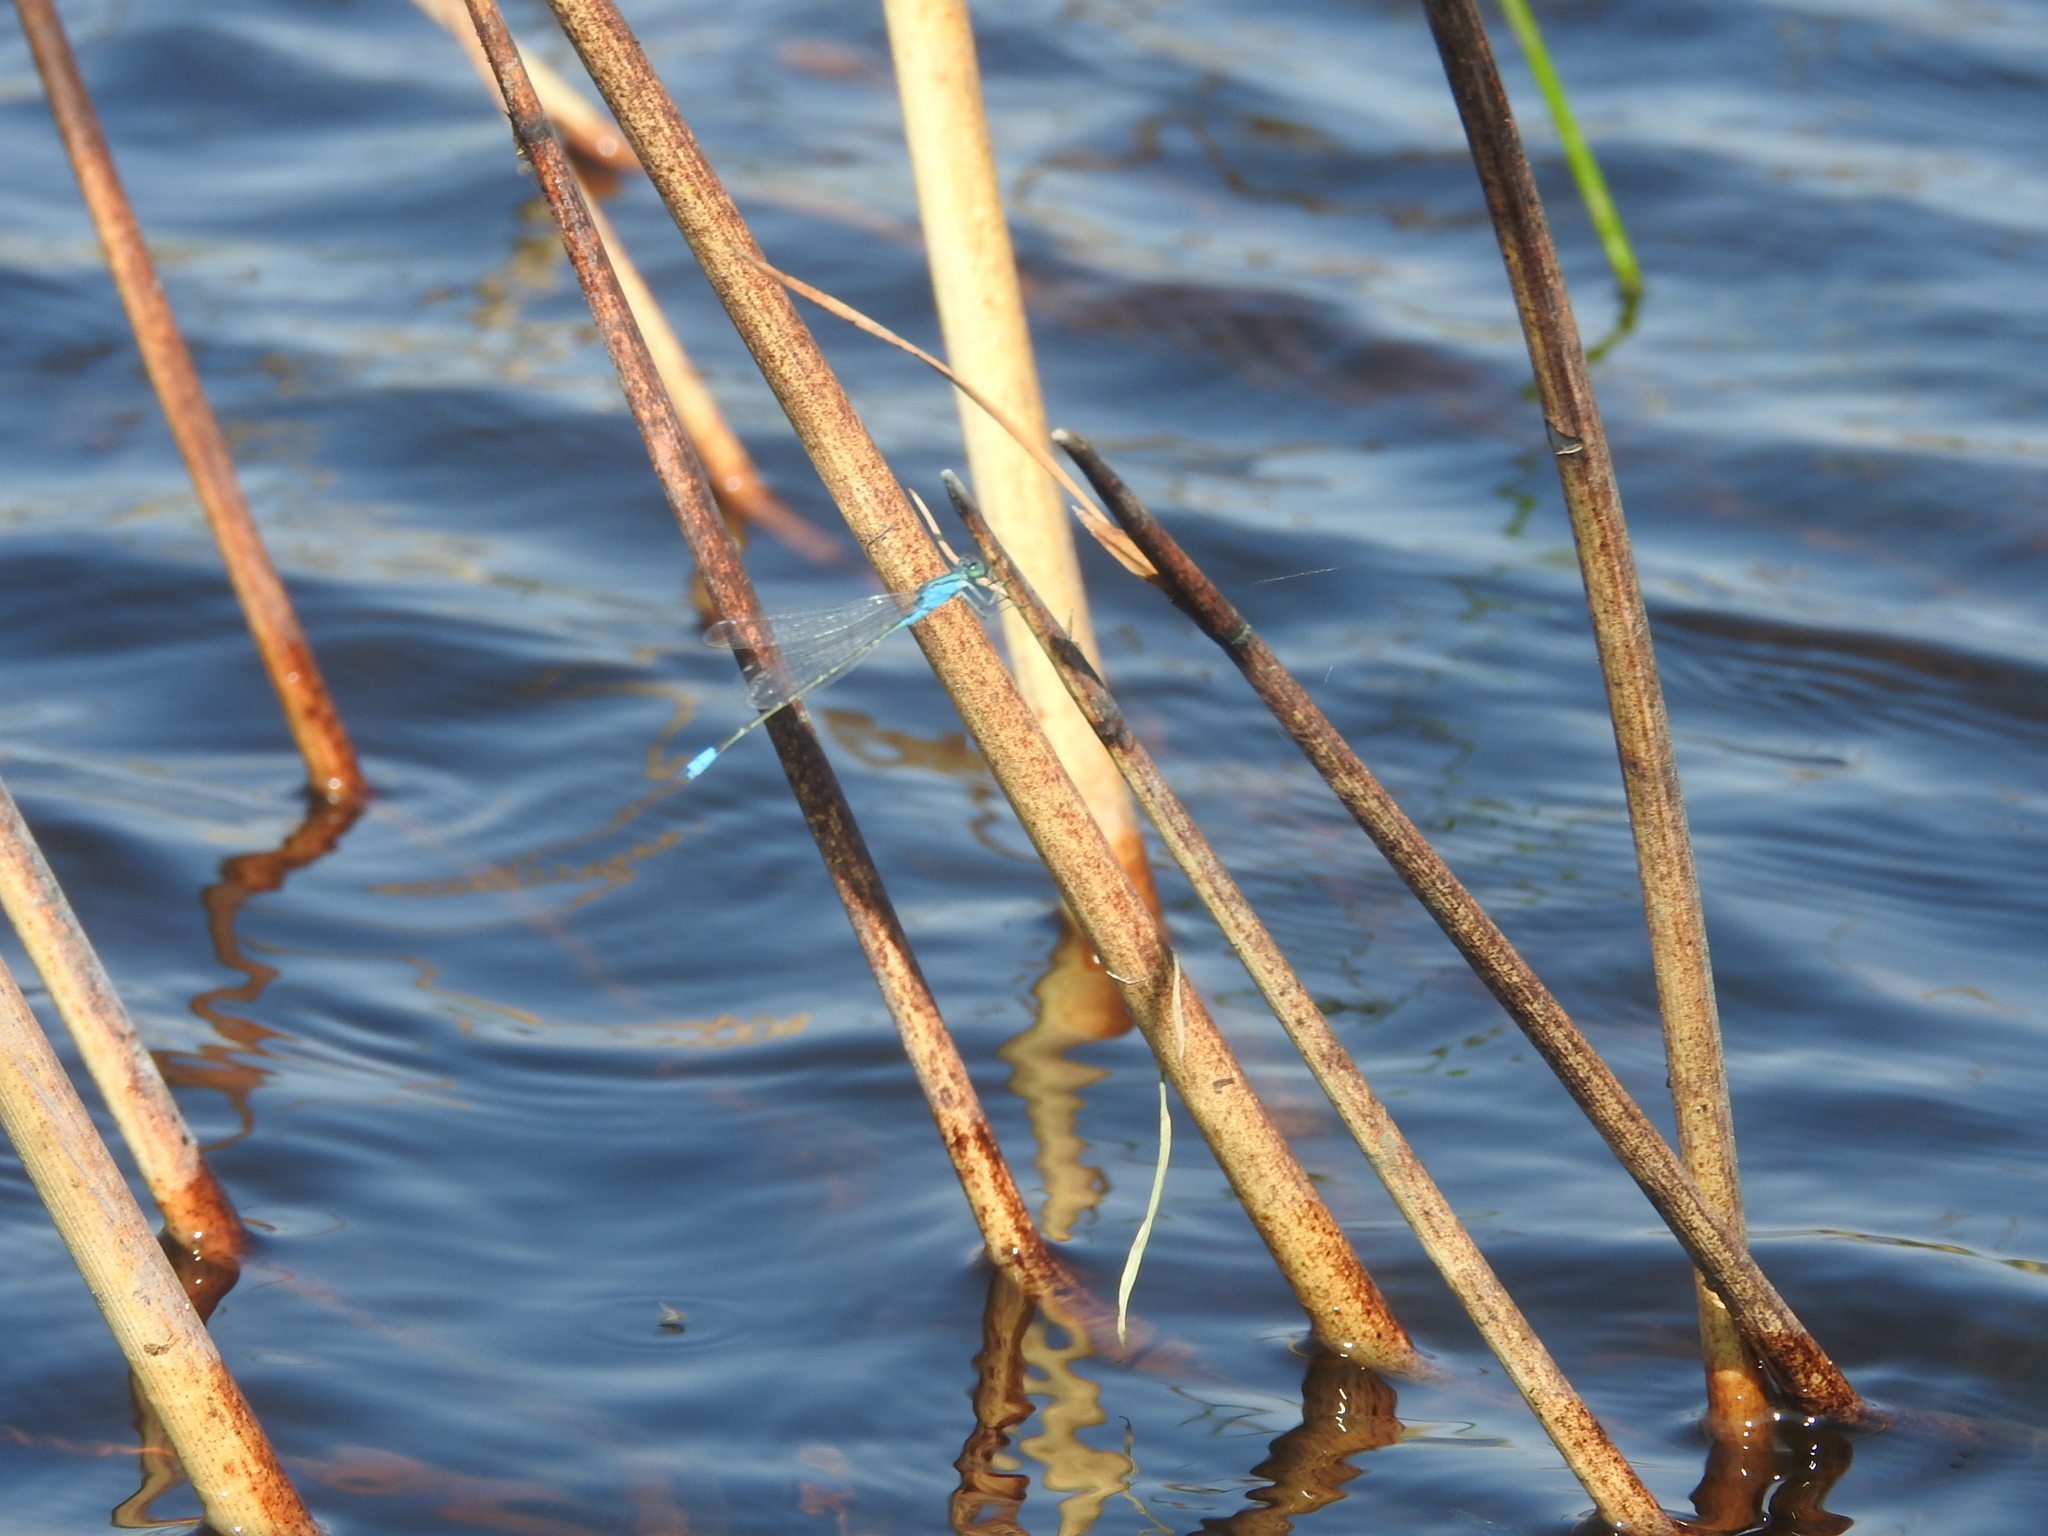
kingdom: Animalia
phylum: Arthropoda
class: Insecta
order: Odonata
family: Coenagrionidae
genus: Pseudagrion
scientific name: Pseudagrion coeleste
